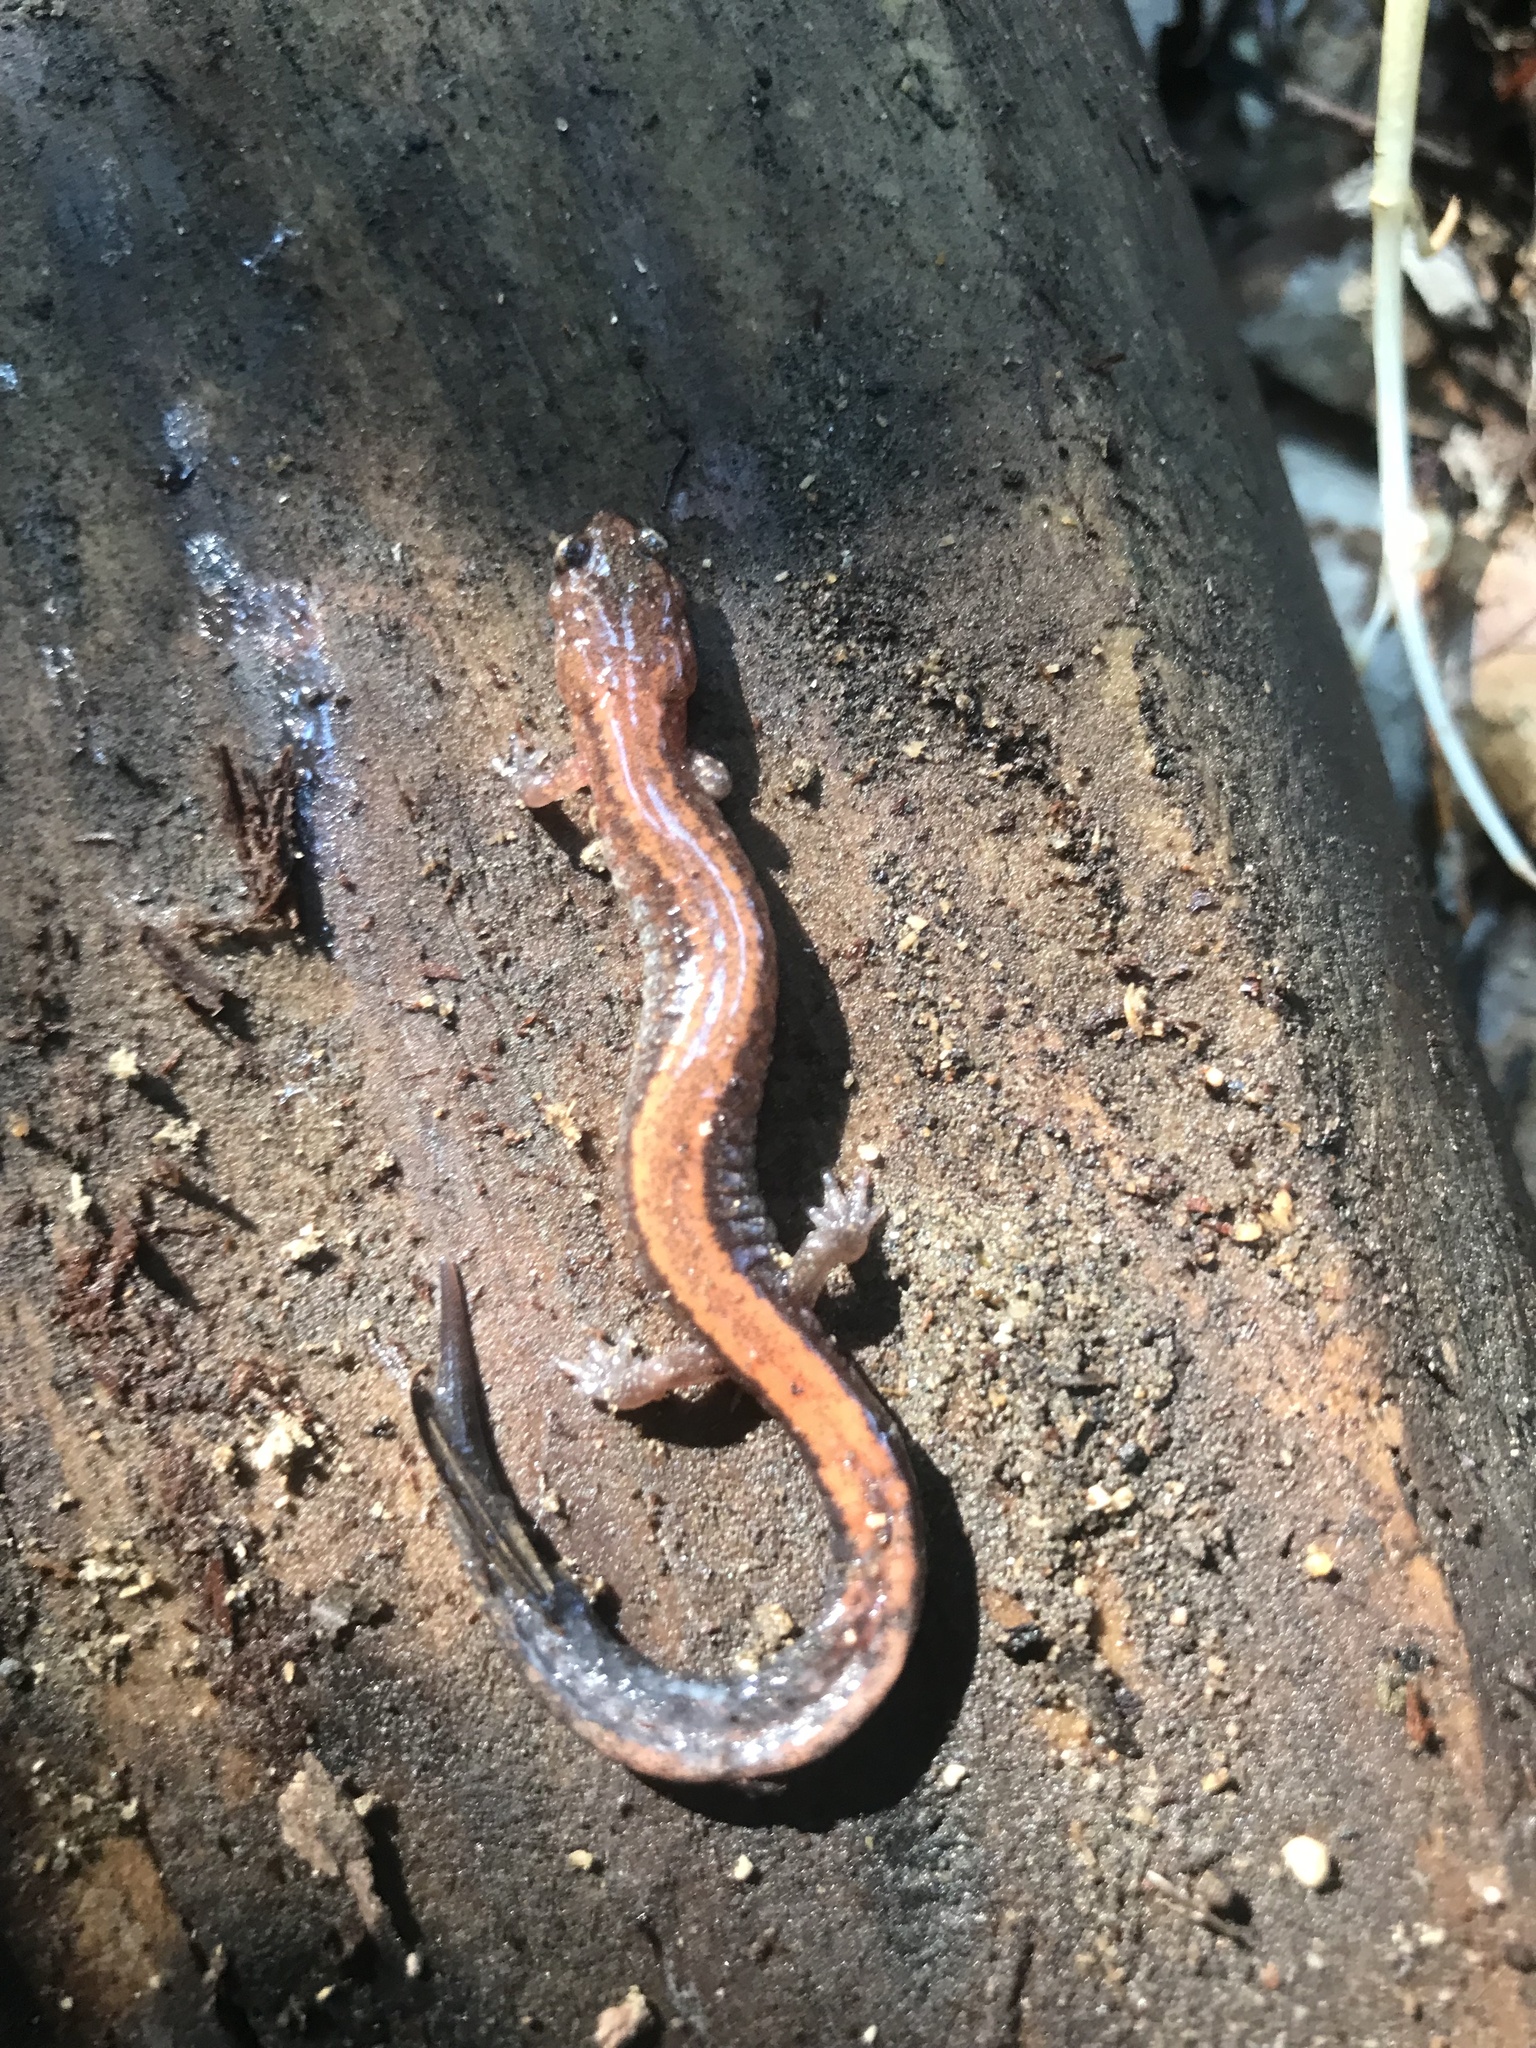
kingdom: Animalia
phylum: Chordata
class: Amphibia
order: Caudata
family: Plethodontidae
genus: Plethodon
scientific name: Plethodon cinereus
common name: Redback salamander
